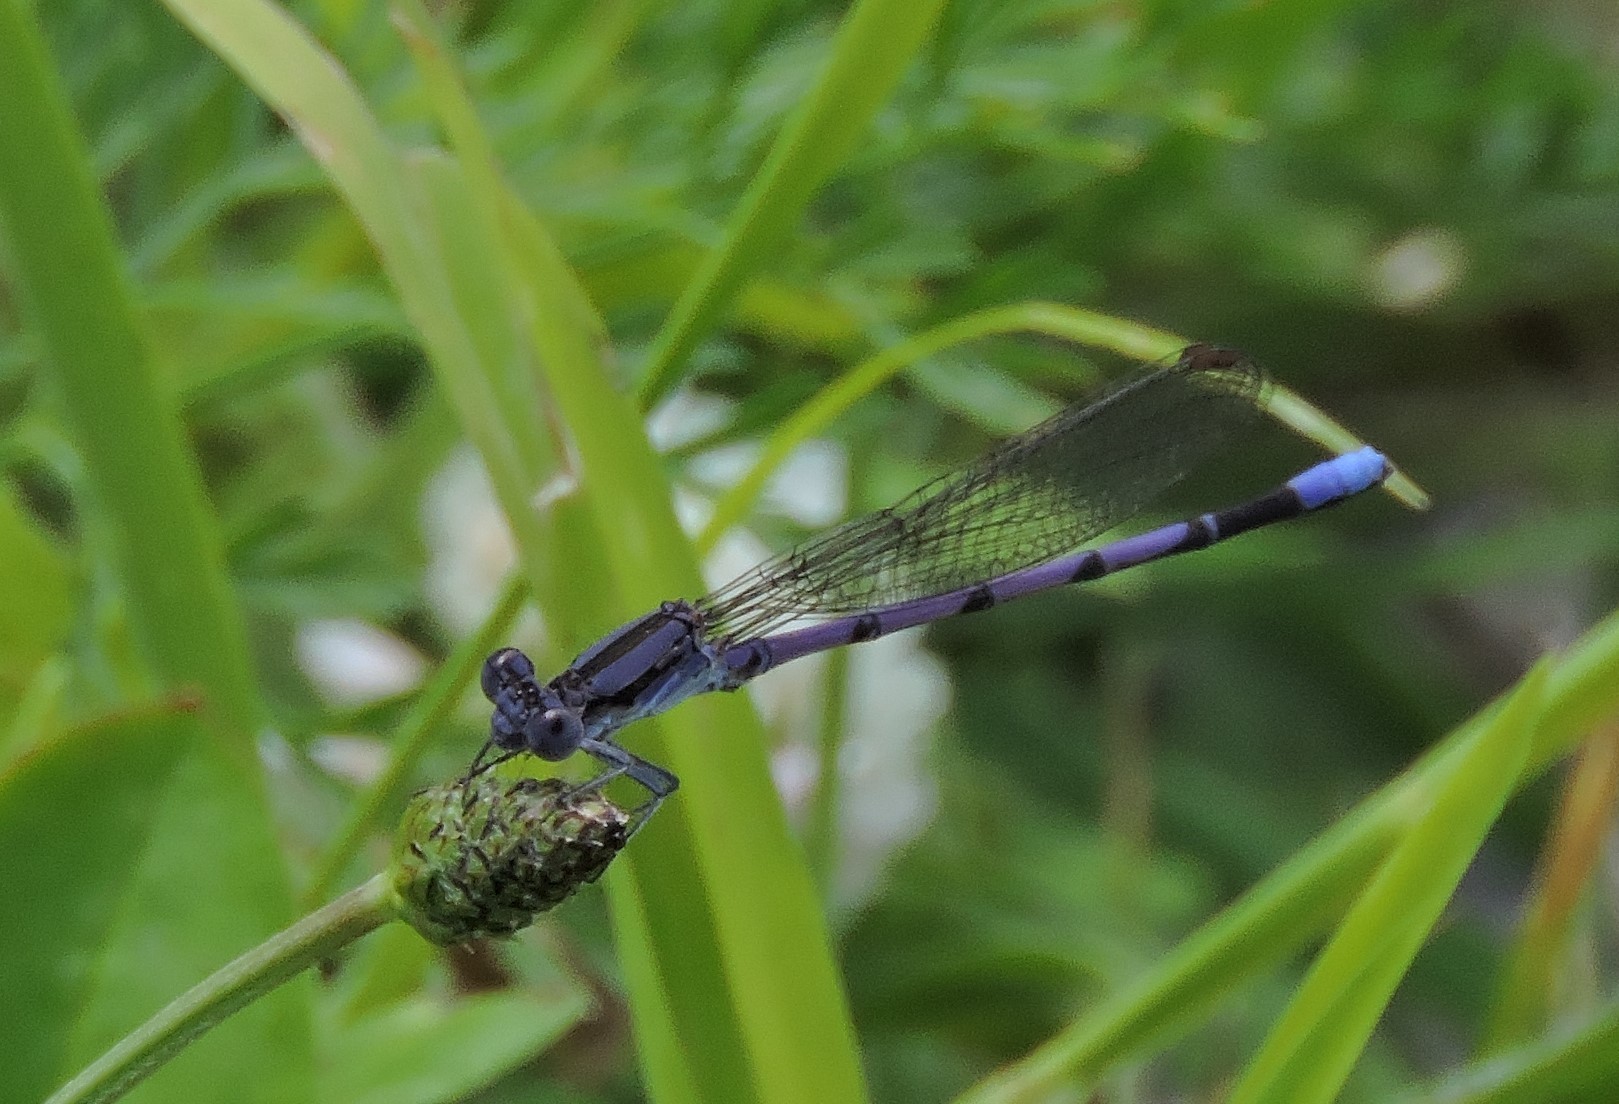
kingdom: Animalia
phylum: Arthropoda
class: Insecta
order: Odonata
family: Coenagrionidae
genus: Argia
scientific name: Argia fumipennis
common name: Variable dancer
